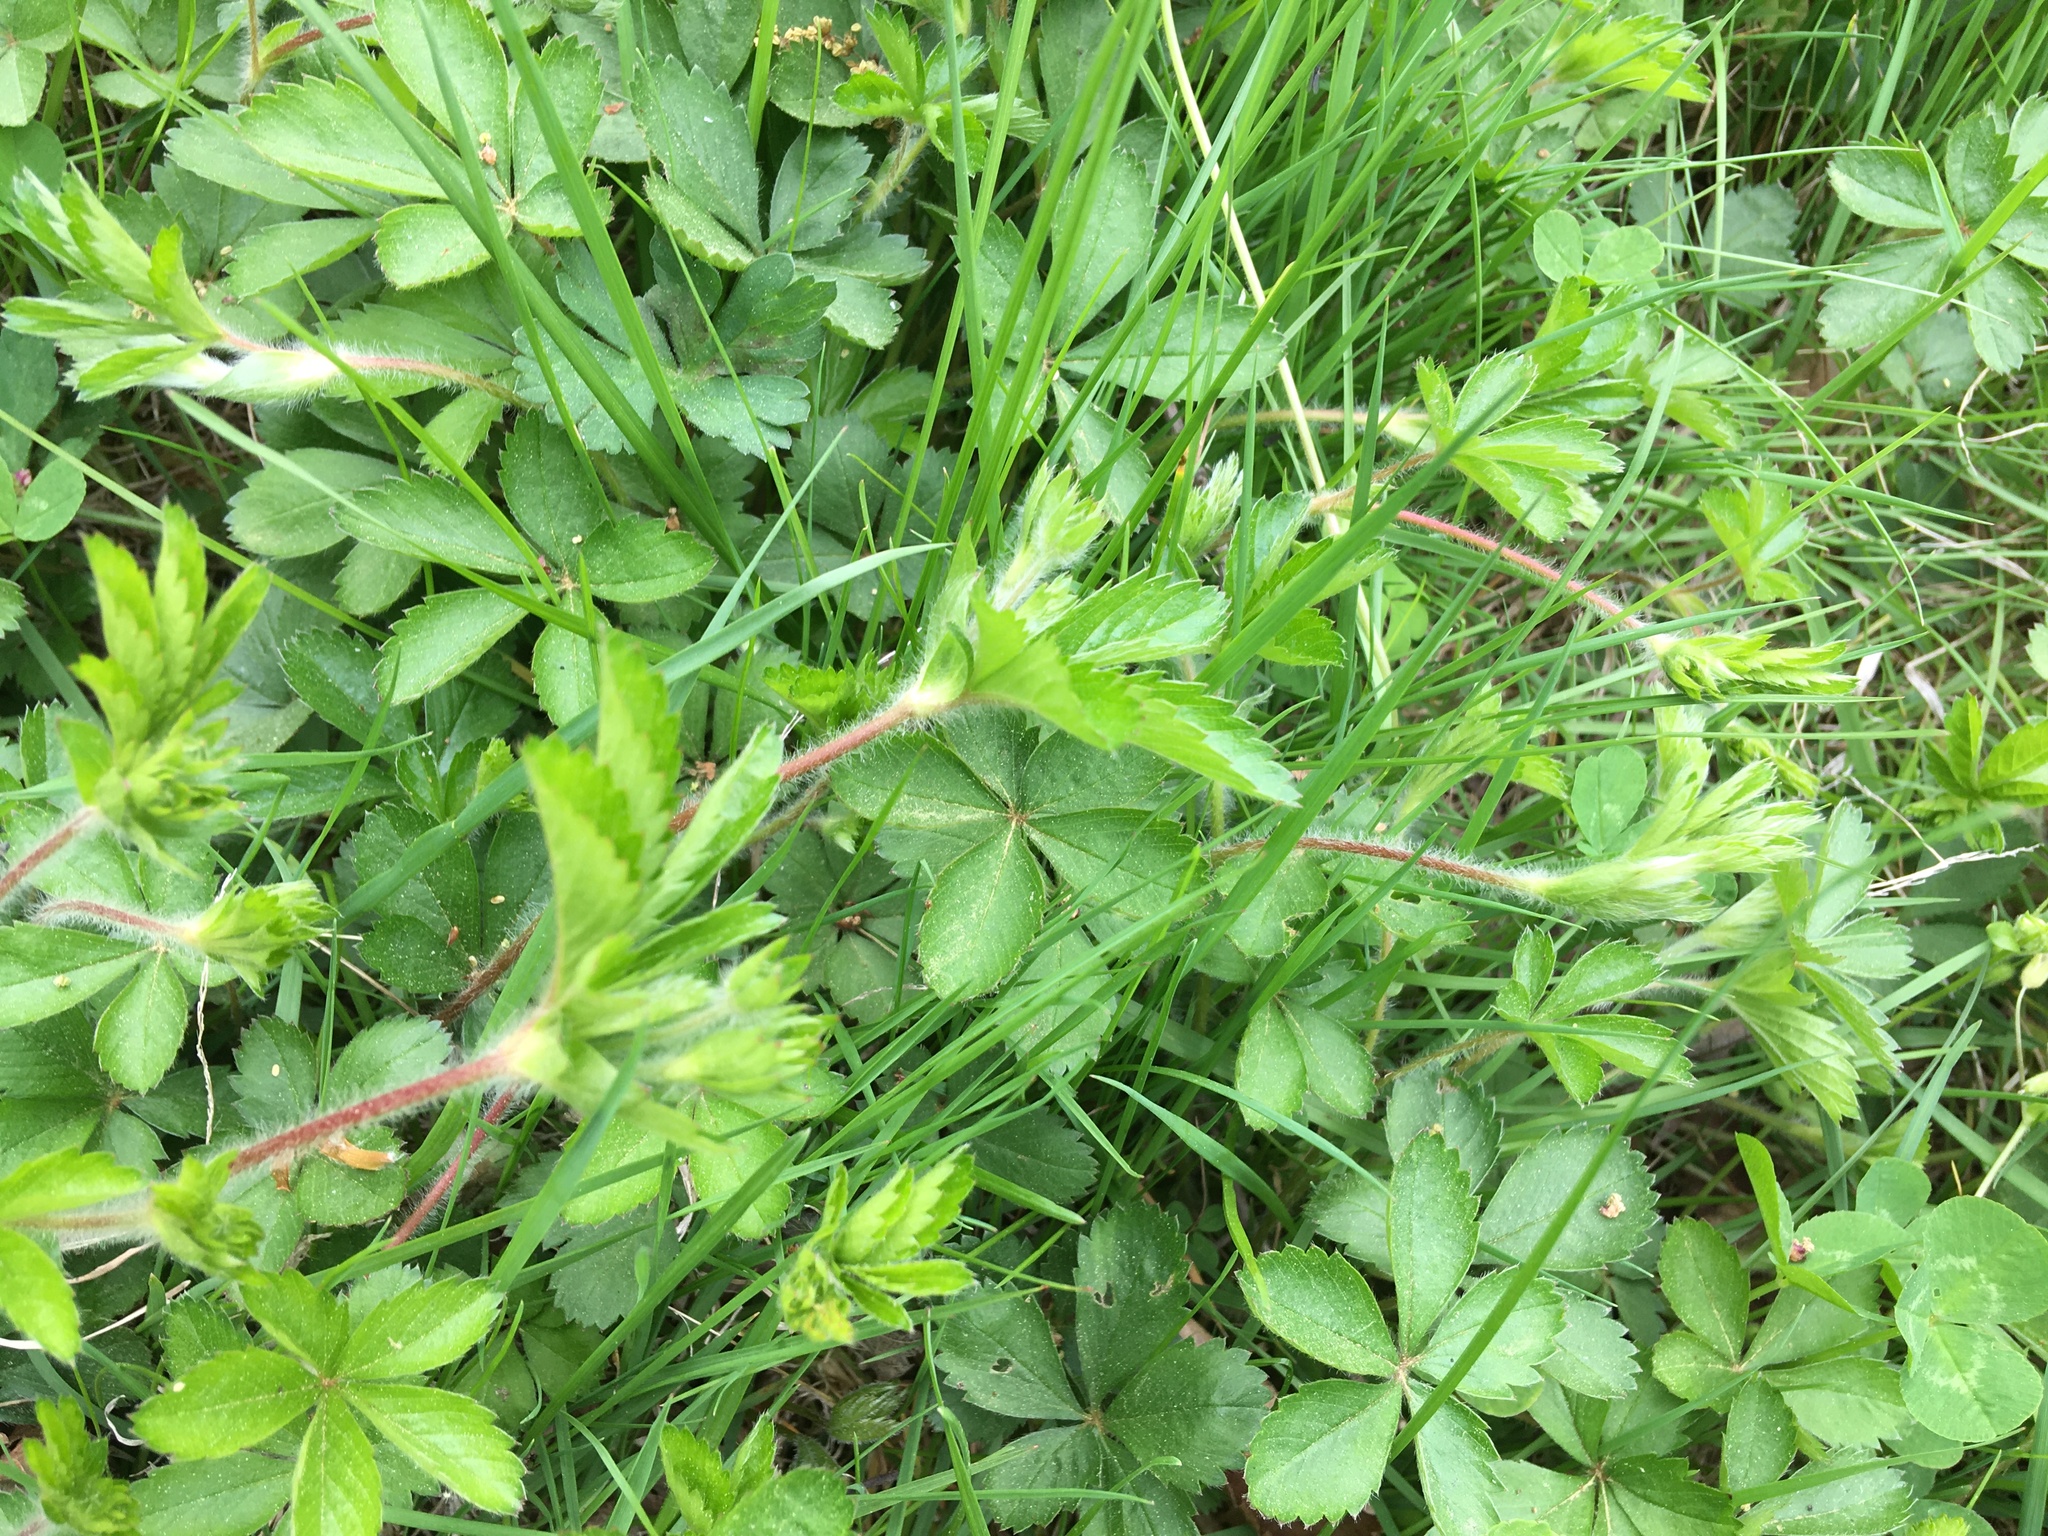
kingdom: Plantae
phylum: Tracheophyta
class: Magnoliopsida
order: Rosales
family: Rosaceae
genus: Potentilla
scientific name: Potentilla simplex
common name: Old field cinquefoil
